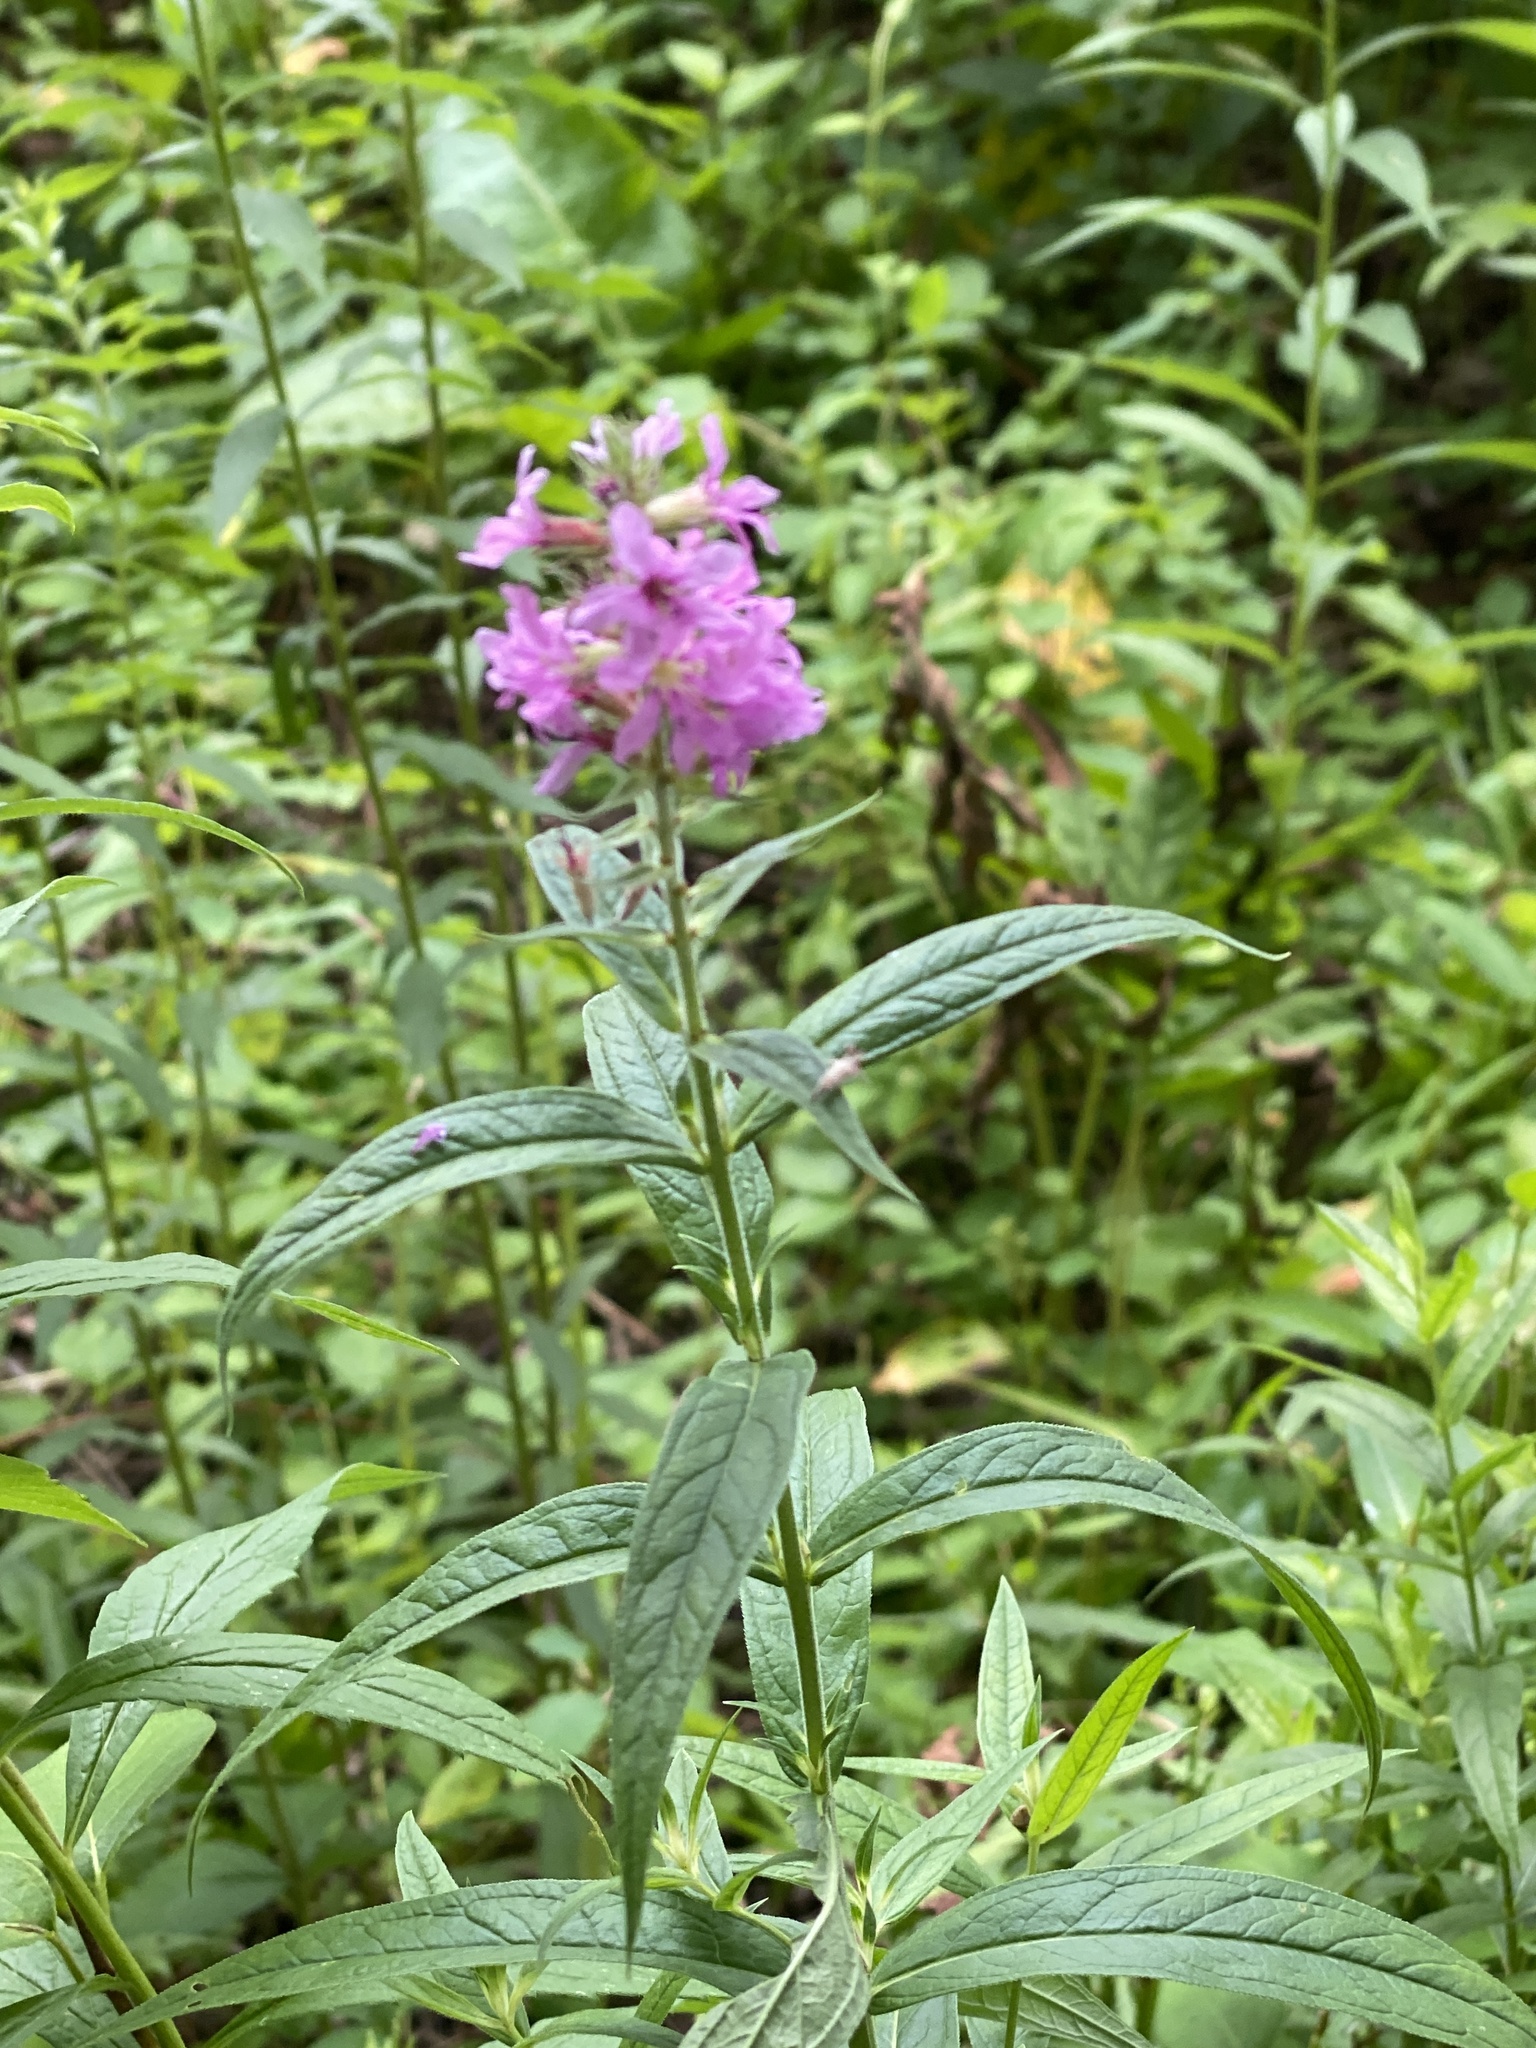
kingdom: Plantae
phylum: Tracheophyta
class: Magnoliopsida
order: Myrtales
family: Lythraceae
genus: Lythrum
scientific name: Lythrum salicaria
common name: Purple loosestrife
